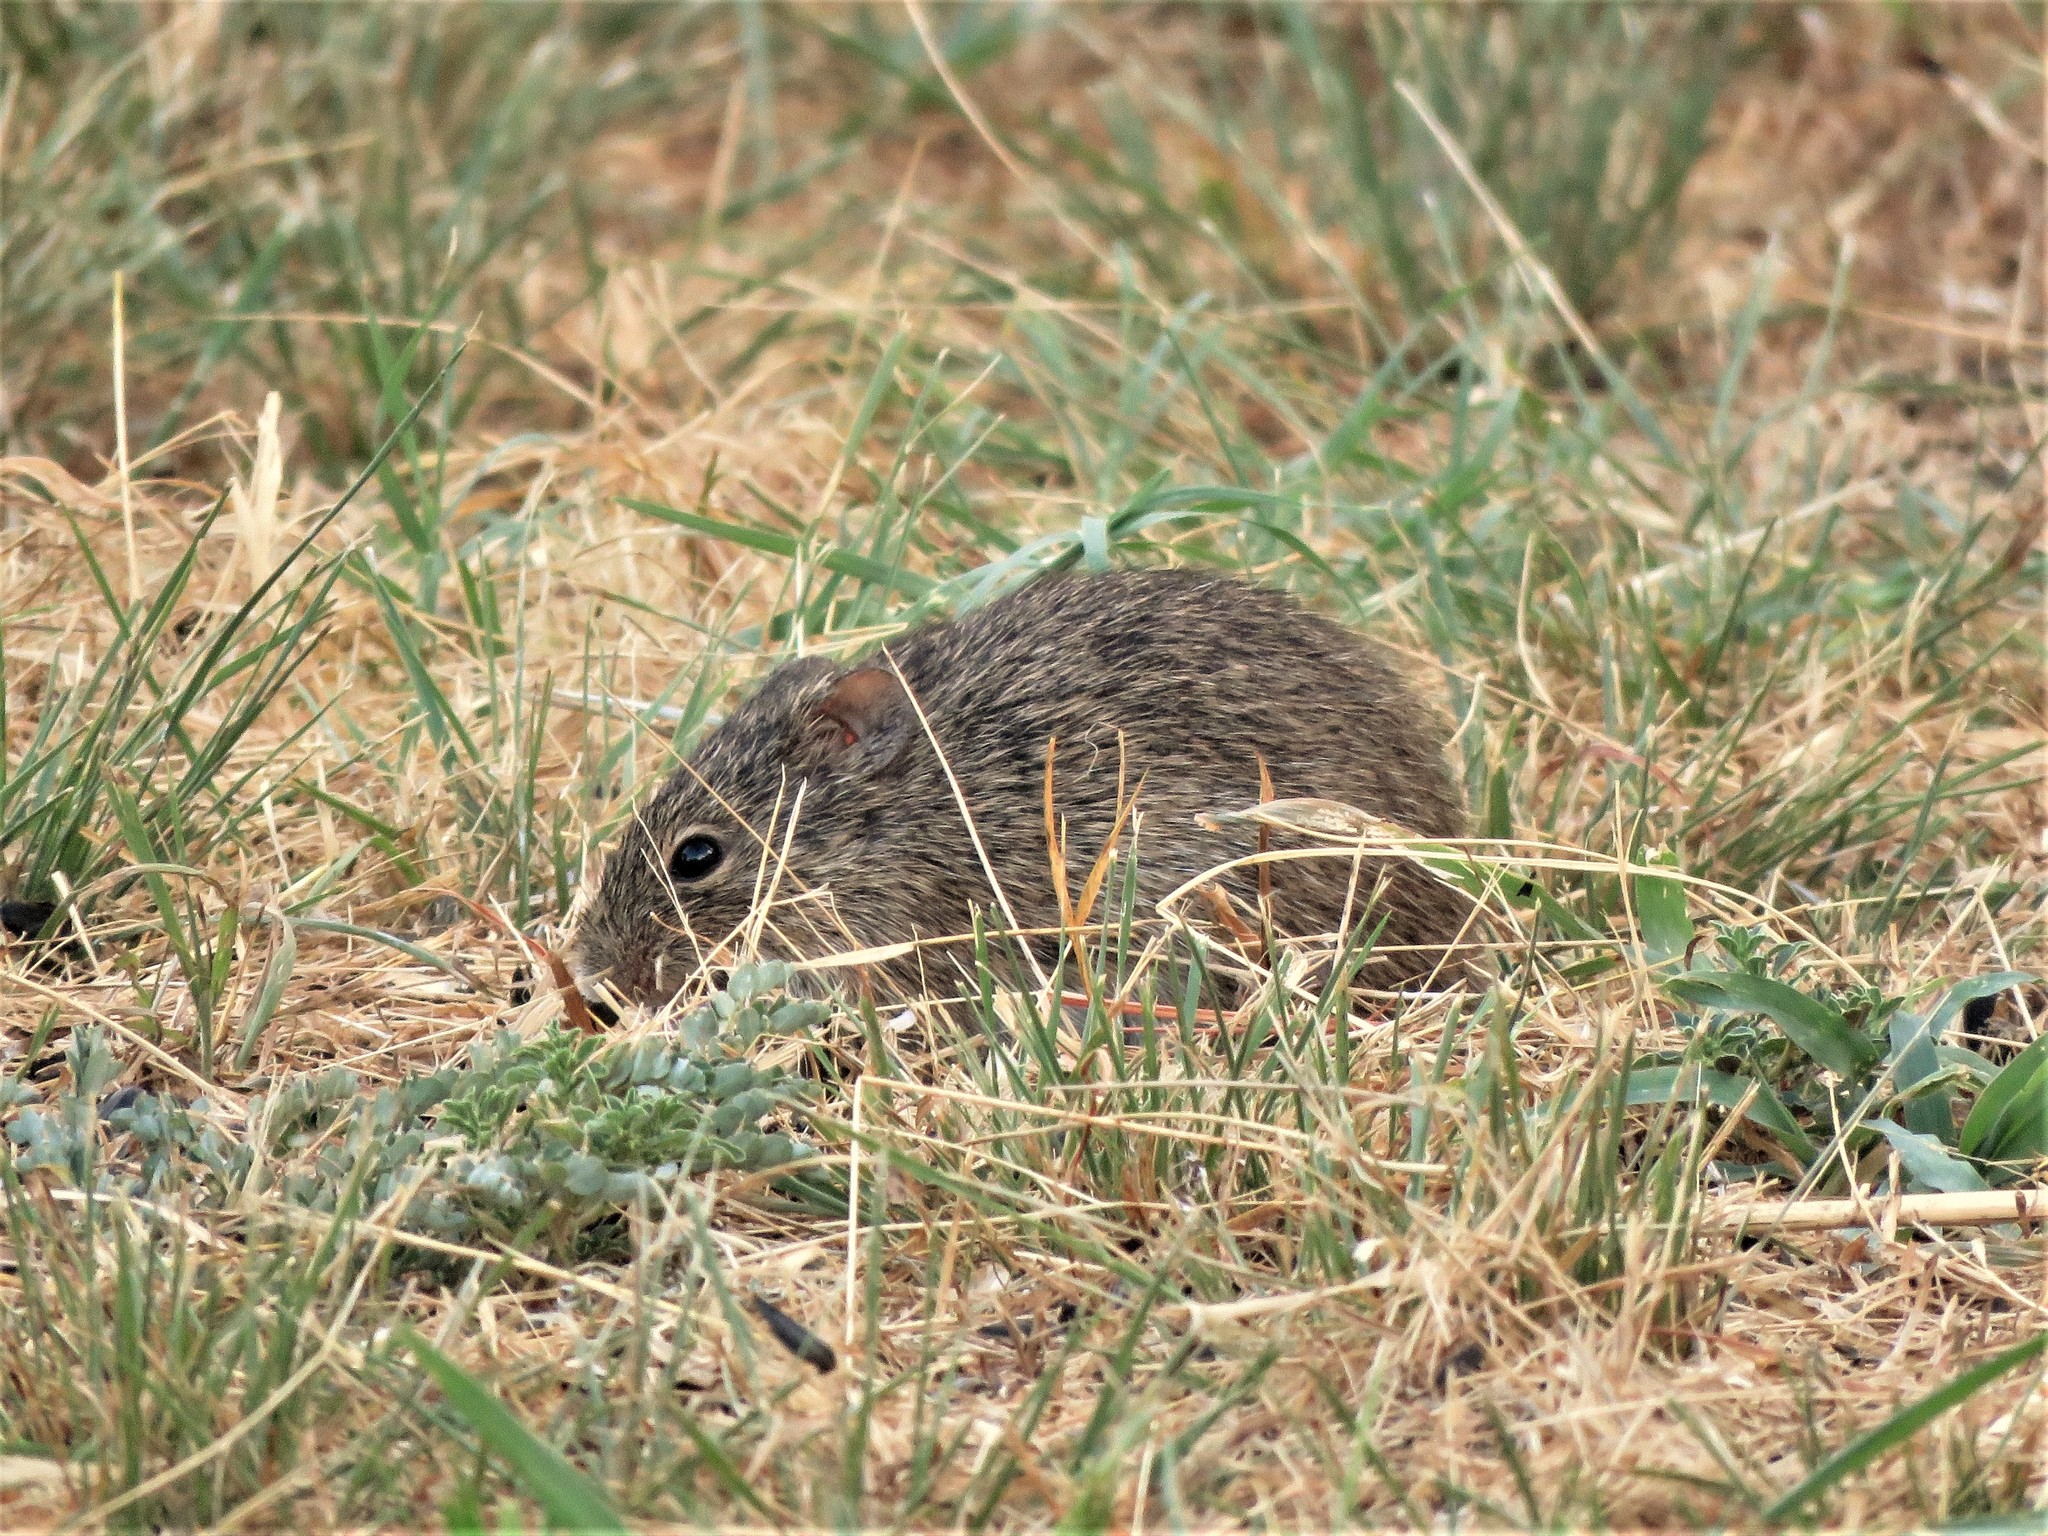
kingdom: Animalia
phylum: Chordata
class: Mammalia
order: Rodentia
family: Cricetidae
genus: Sigmodon
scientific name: Sigmodon hispidus
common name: Hispid cotton rat
